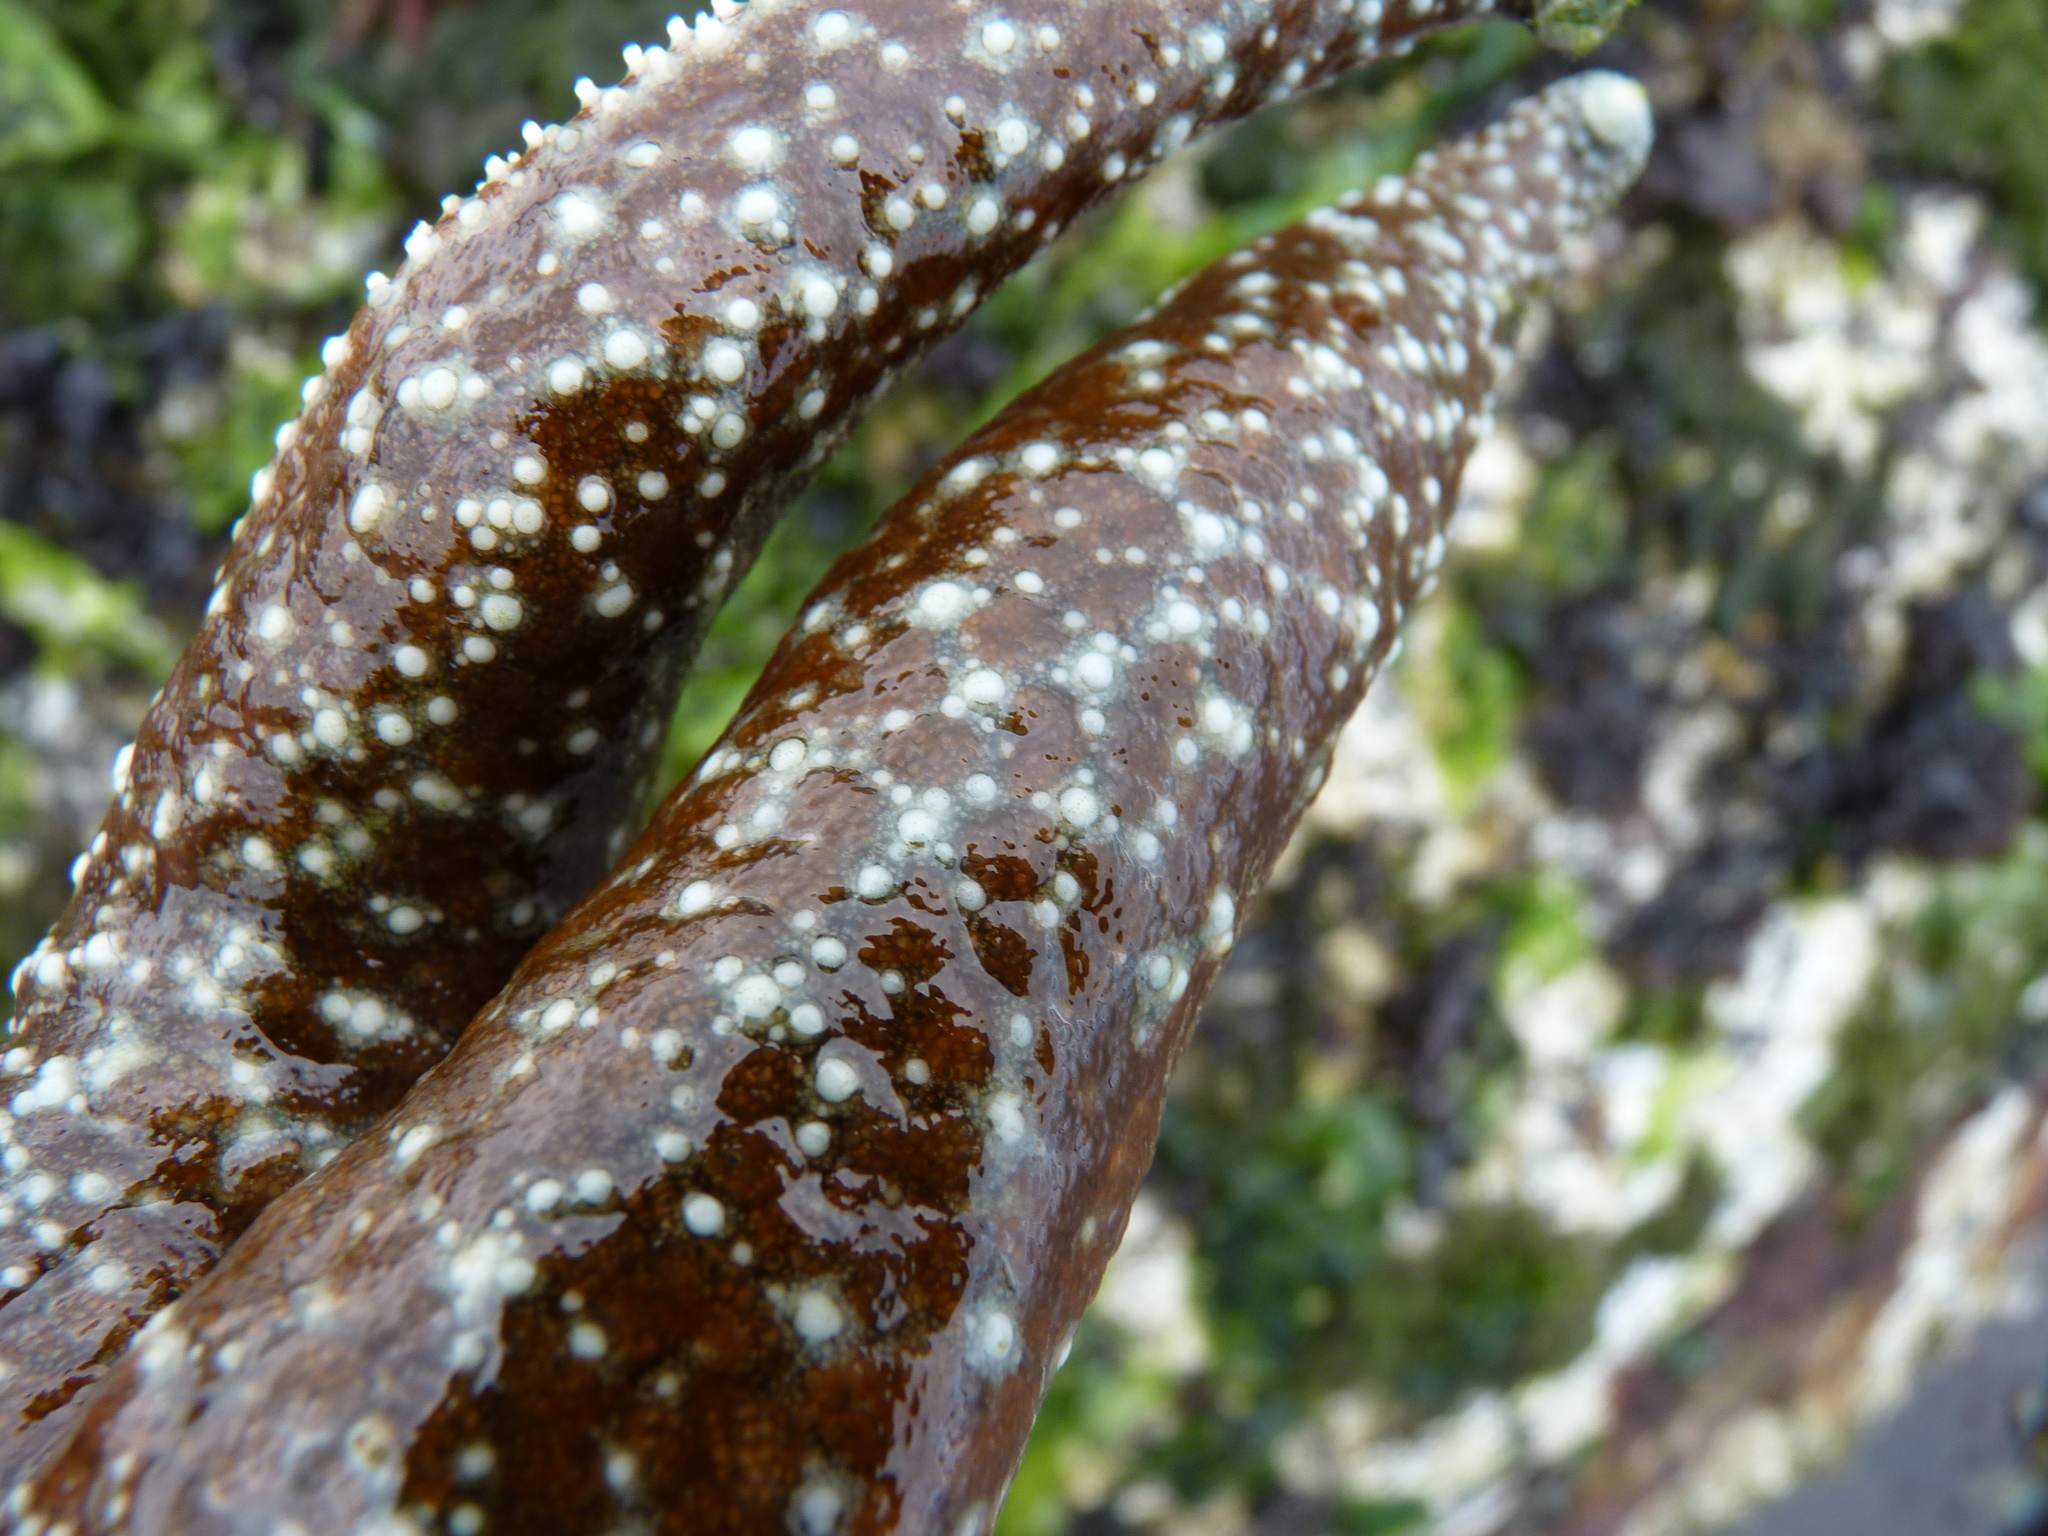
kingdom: Animalia
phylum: Echinodermata
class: Asteroidea
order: Forcipulatida
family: Asteriidae
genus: Evasterias
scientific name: Evasterias troschelii
